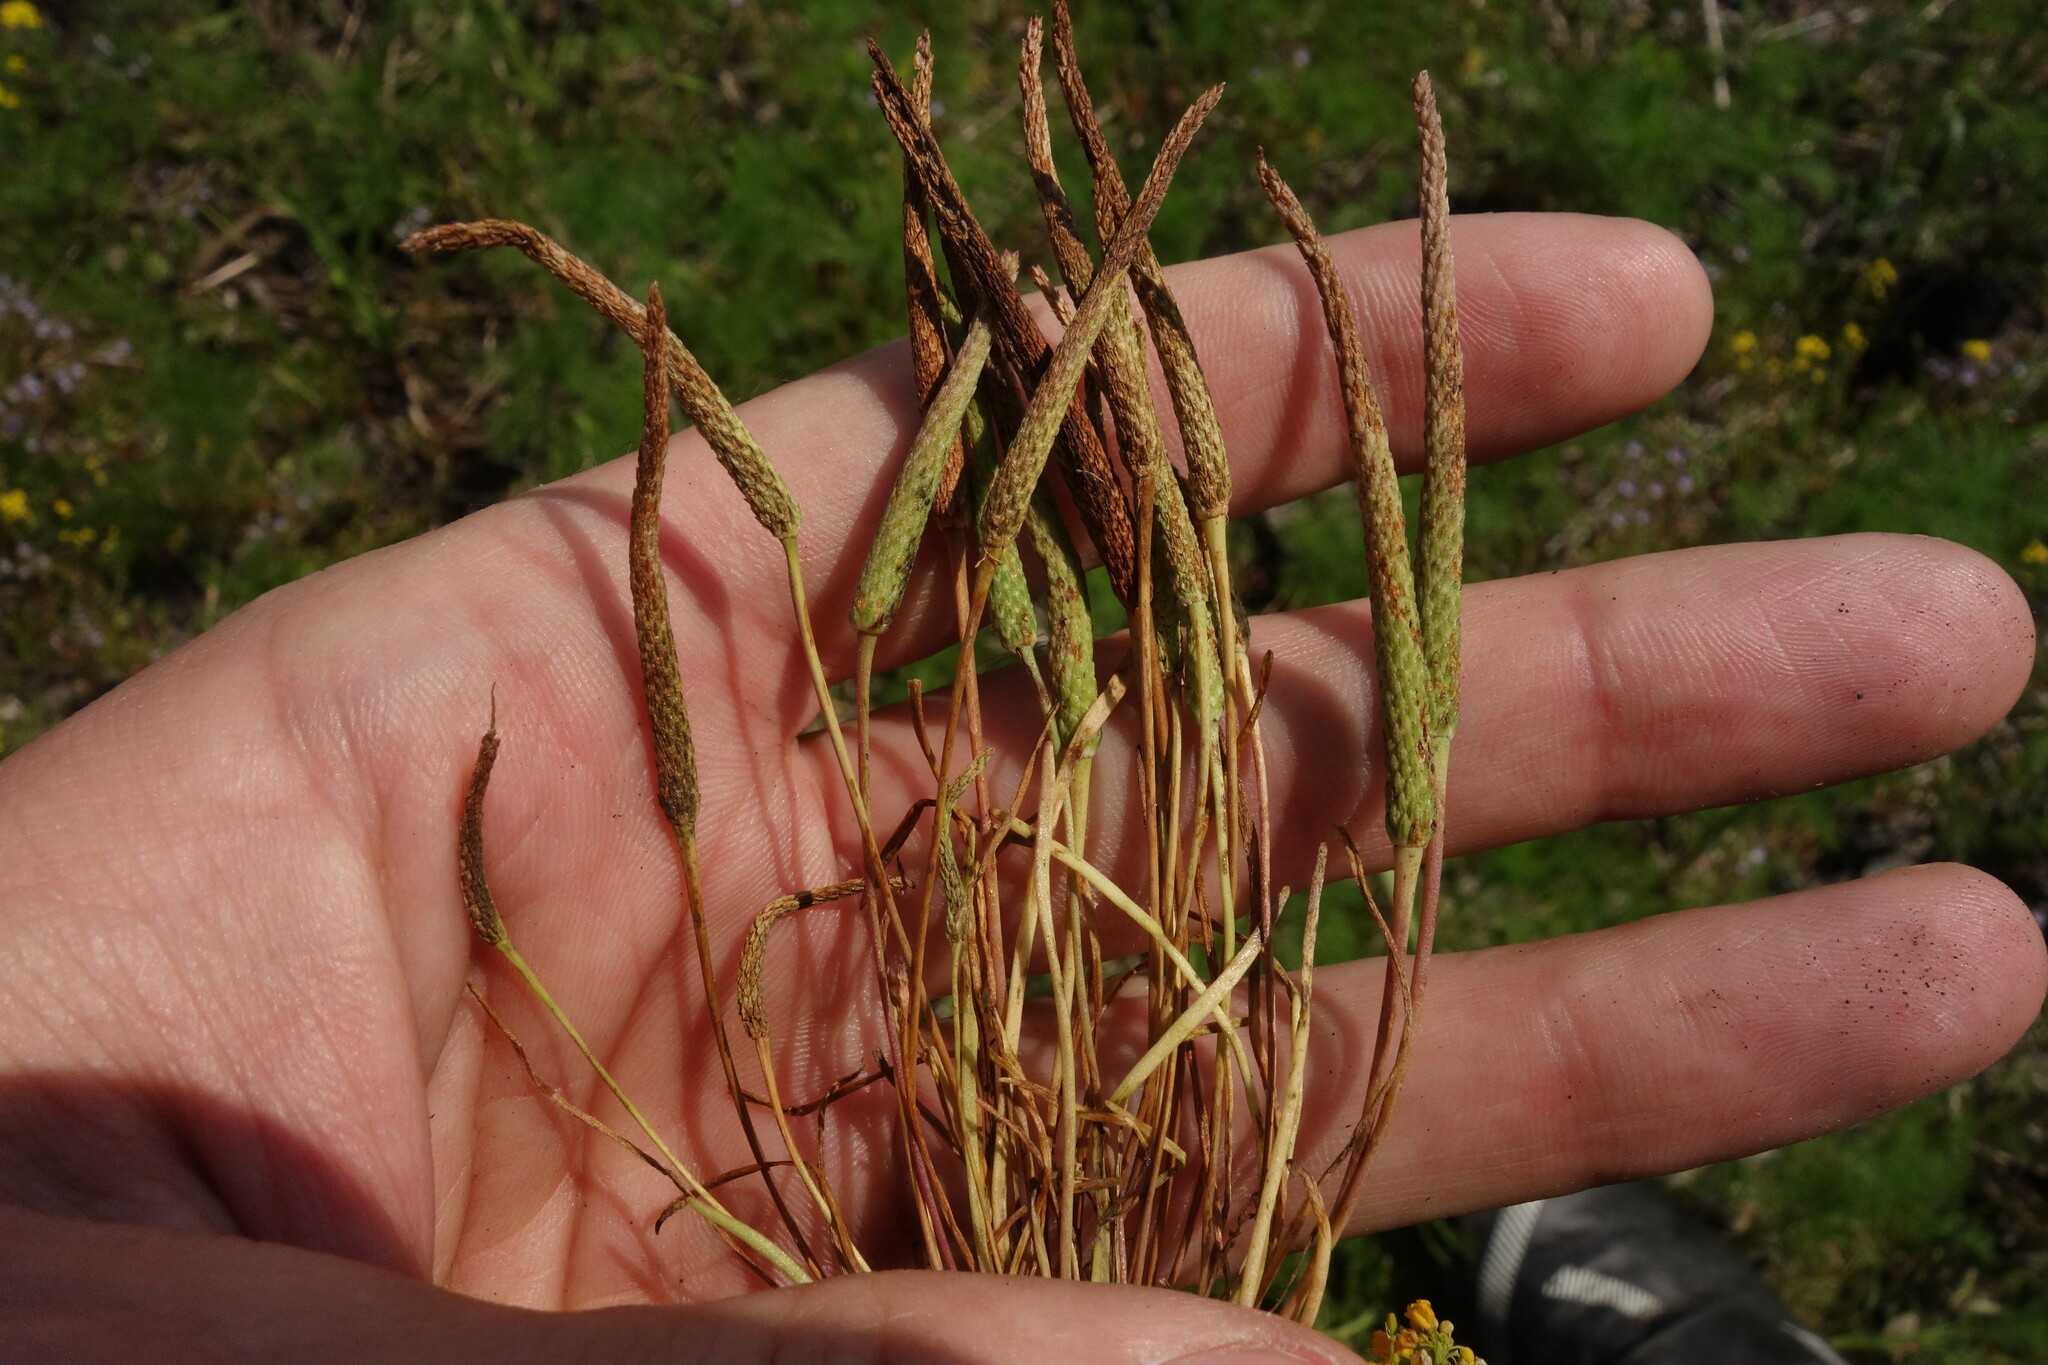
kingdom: Plantae
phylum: Tracheophyta
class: Magnoliopsida
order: Ranunculales
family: Ranunculaceae
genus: Myosurus
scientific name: Myosurus minimus
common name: Mousetail
